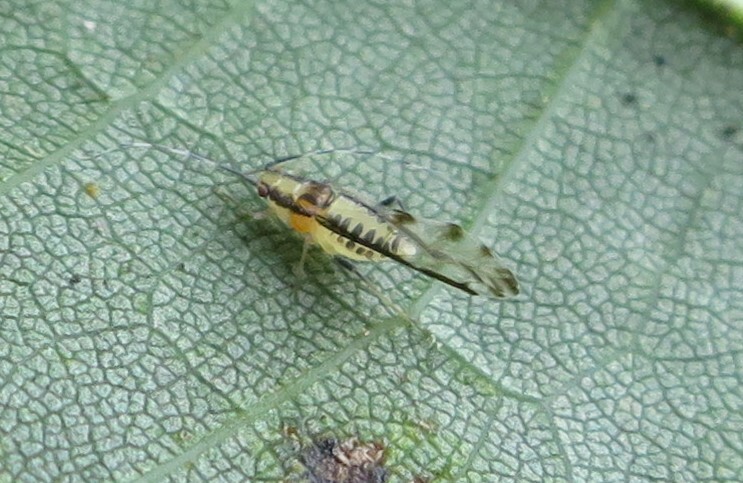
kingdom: Animalia
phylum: Arthropoda
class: Insecta
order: Hemiptera
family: Aphididae
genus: Eucallipterus
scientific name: Eucallipterus tiliae
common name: Aphid
